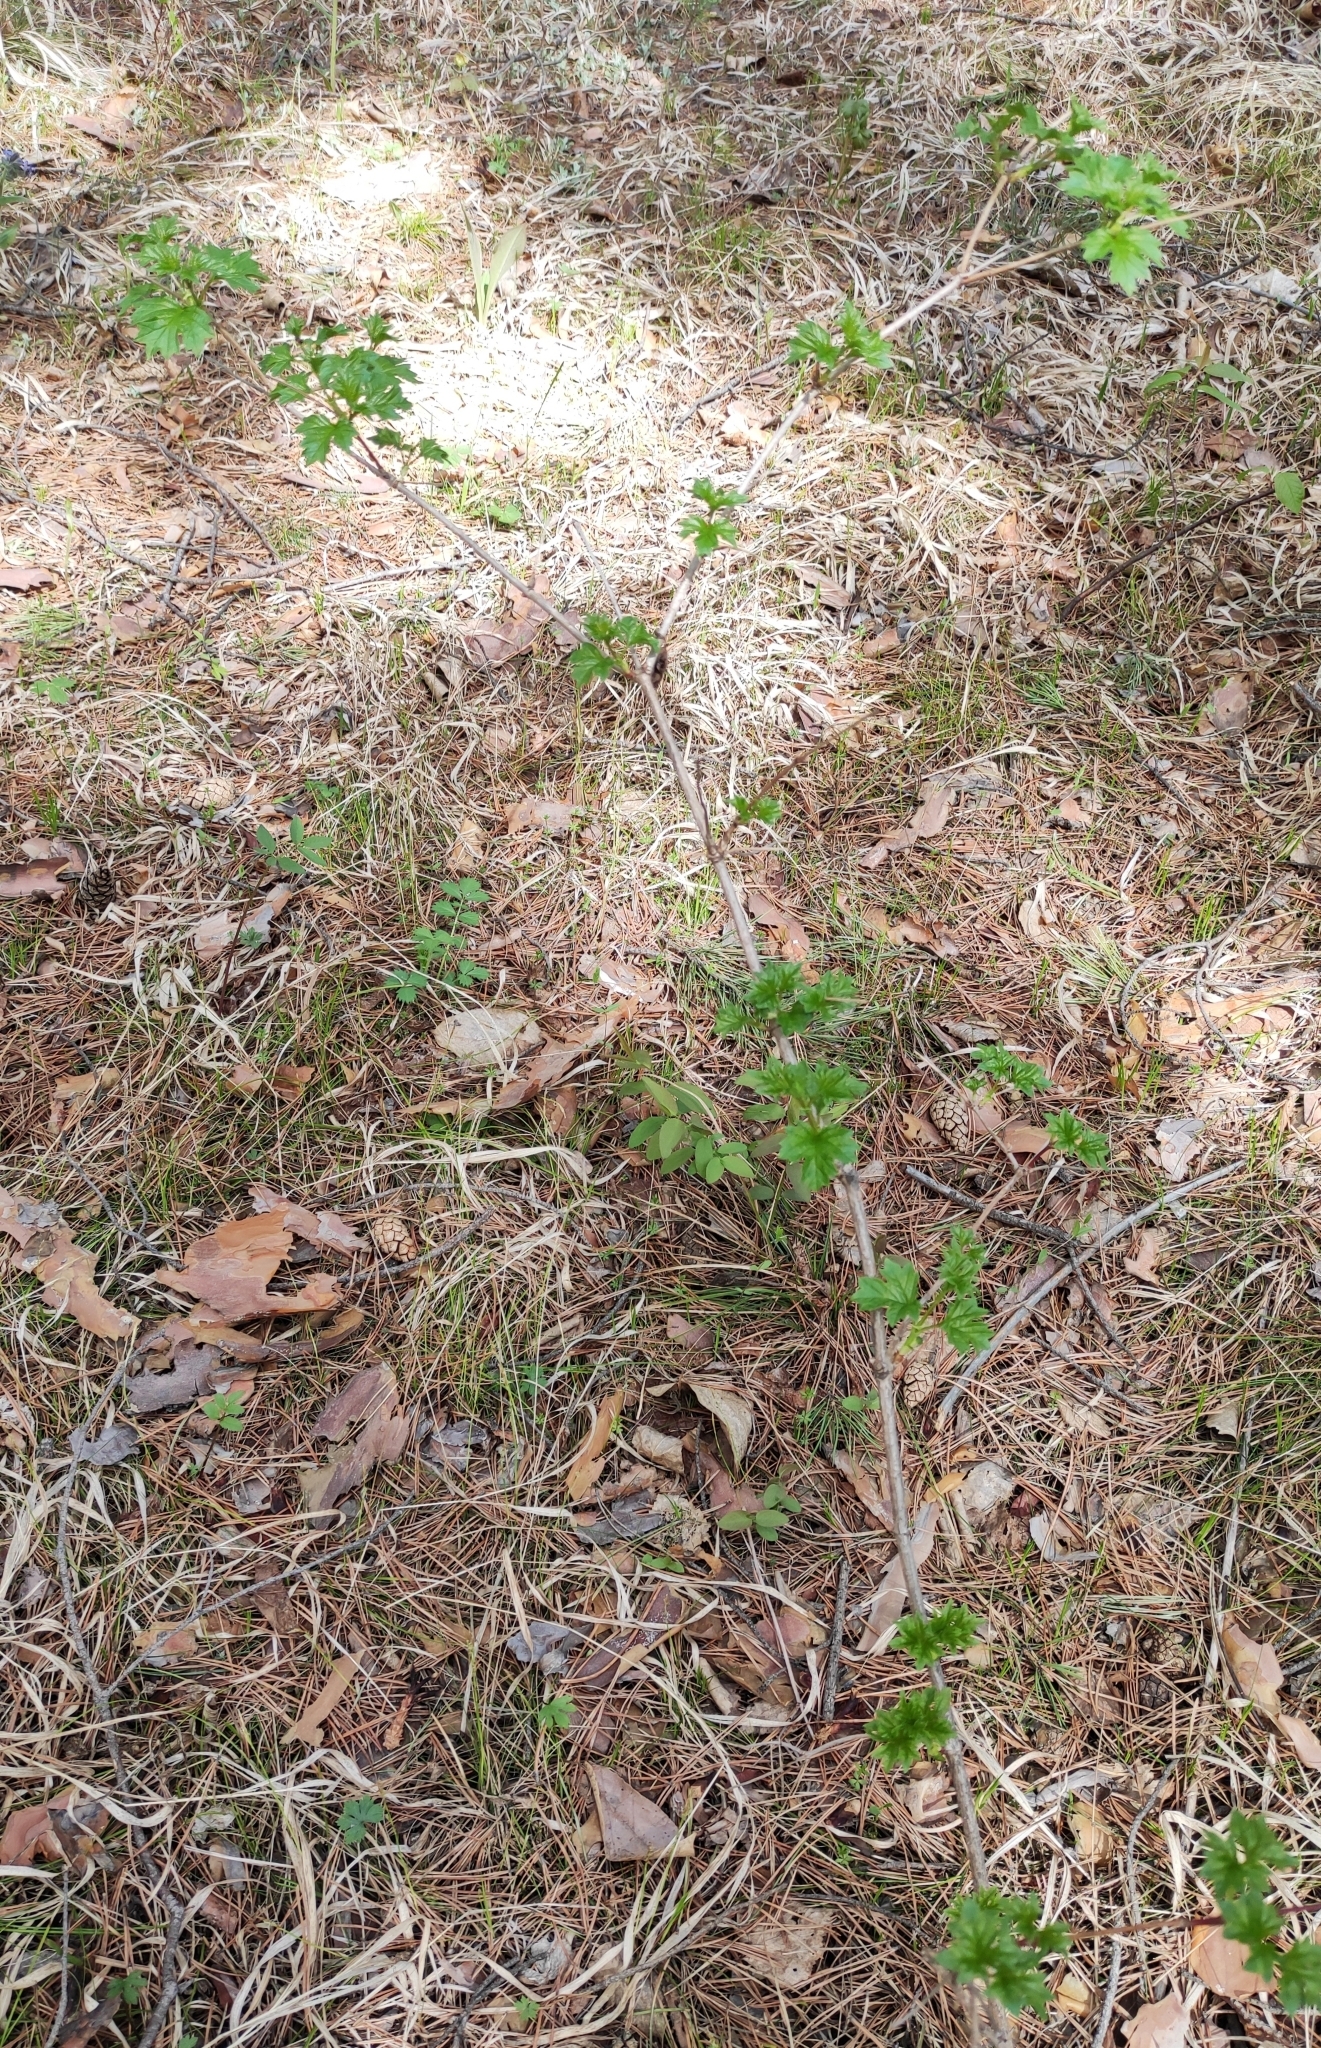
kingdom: Plantae
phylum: Tracheophyta
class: Magnoliopsida
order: Dipsacales
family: Viburnaceae
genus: Viburnum
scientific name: Viburnum opulus
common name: Guelder-rose
